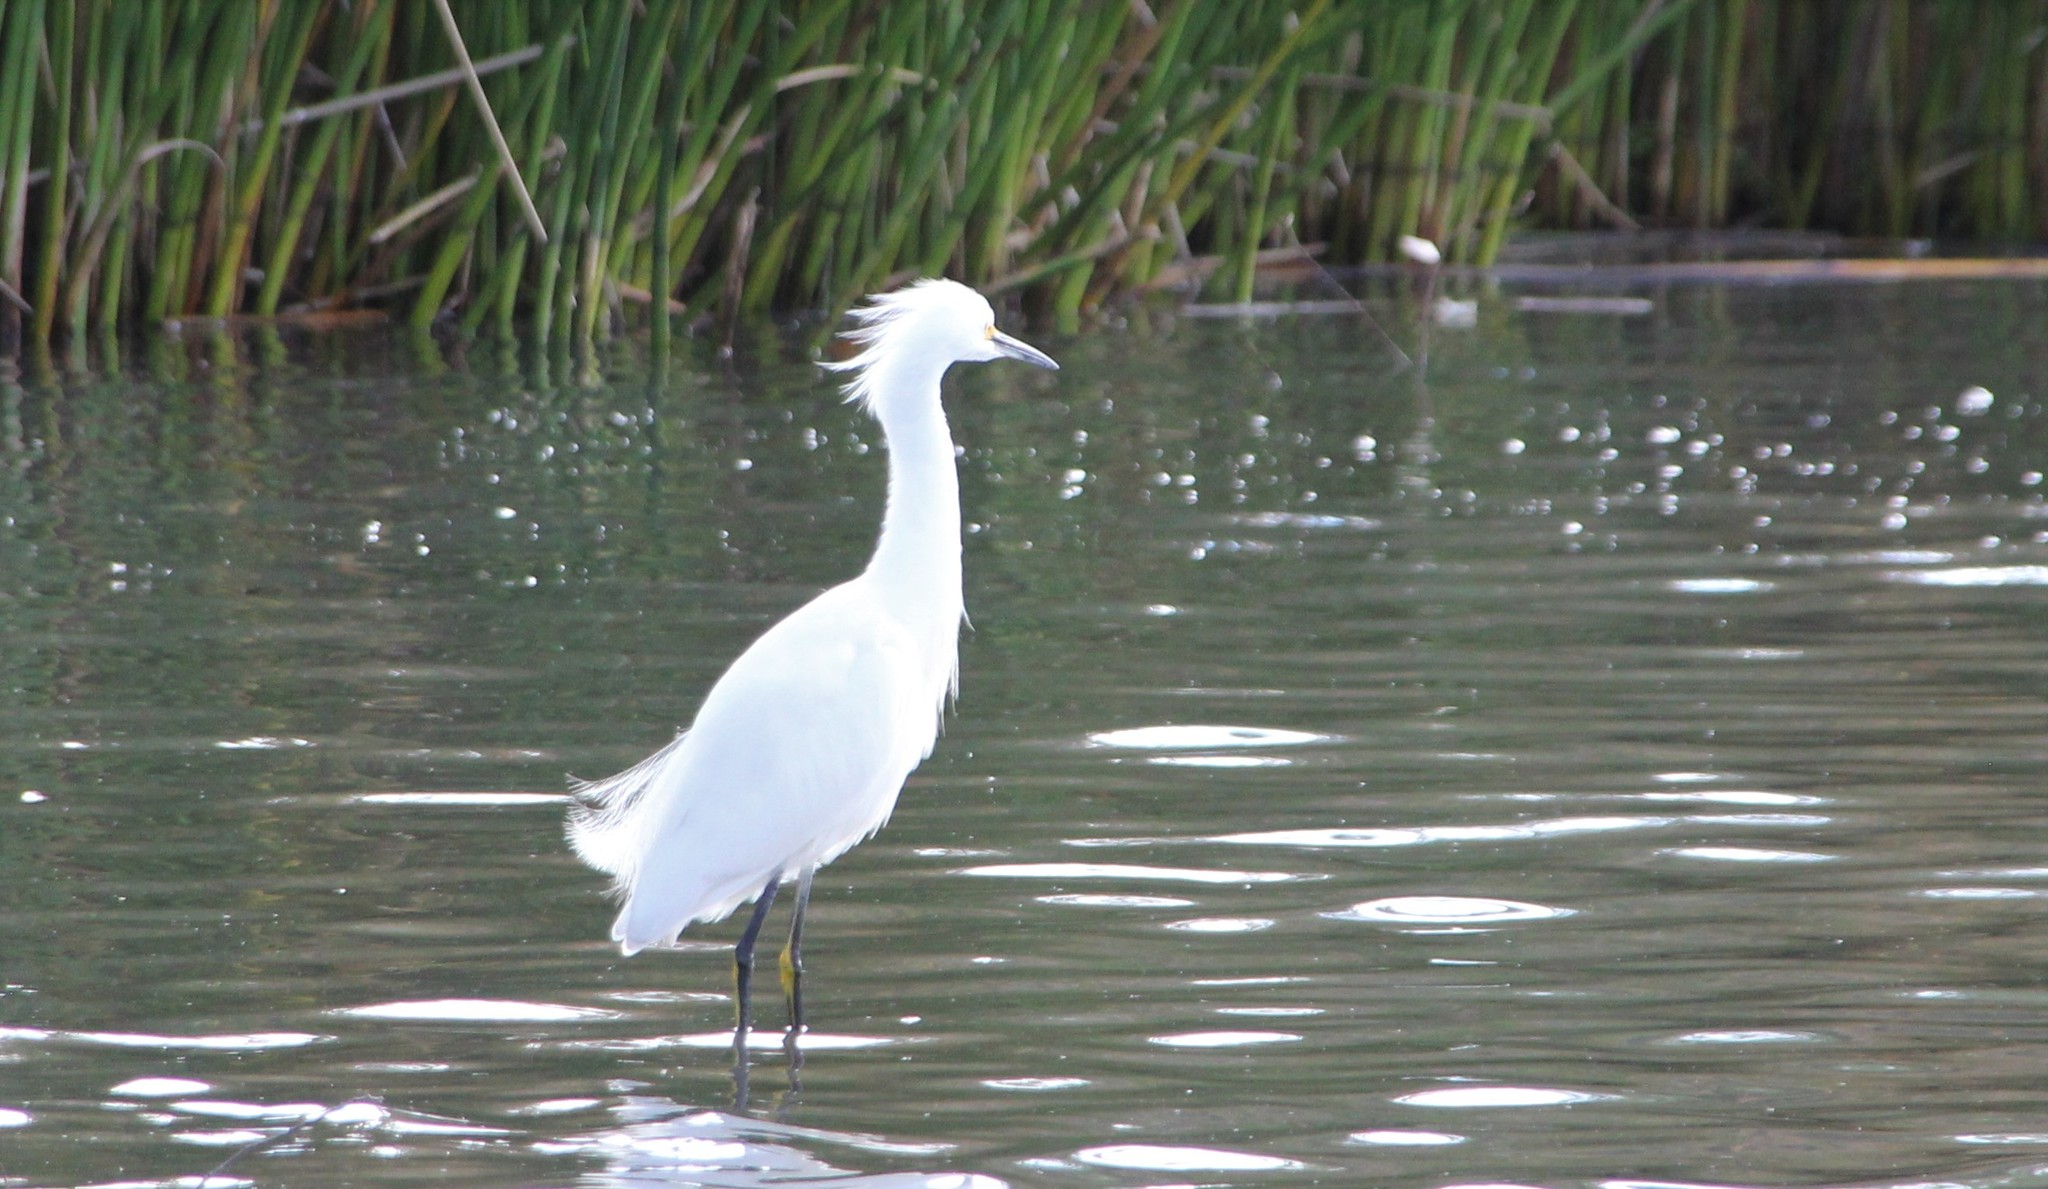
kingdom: Animalia
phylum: Chordata
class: Aves
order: Pelecaniformes
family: Ardeidae
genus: Egretta
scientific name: Egretta thula
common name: Snowy egret
